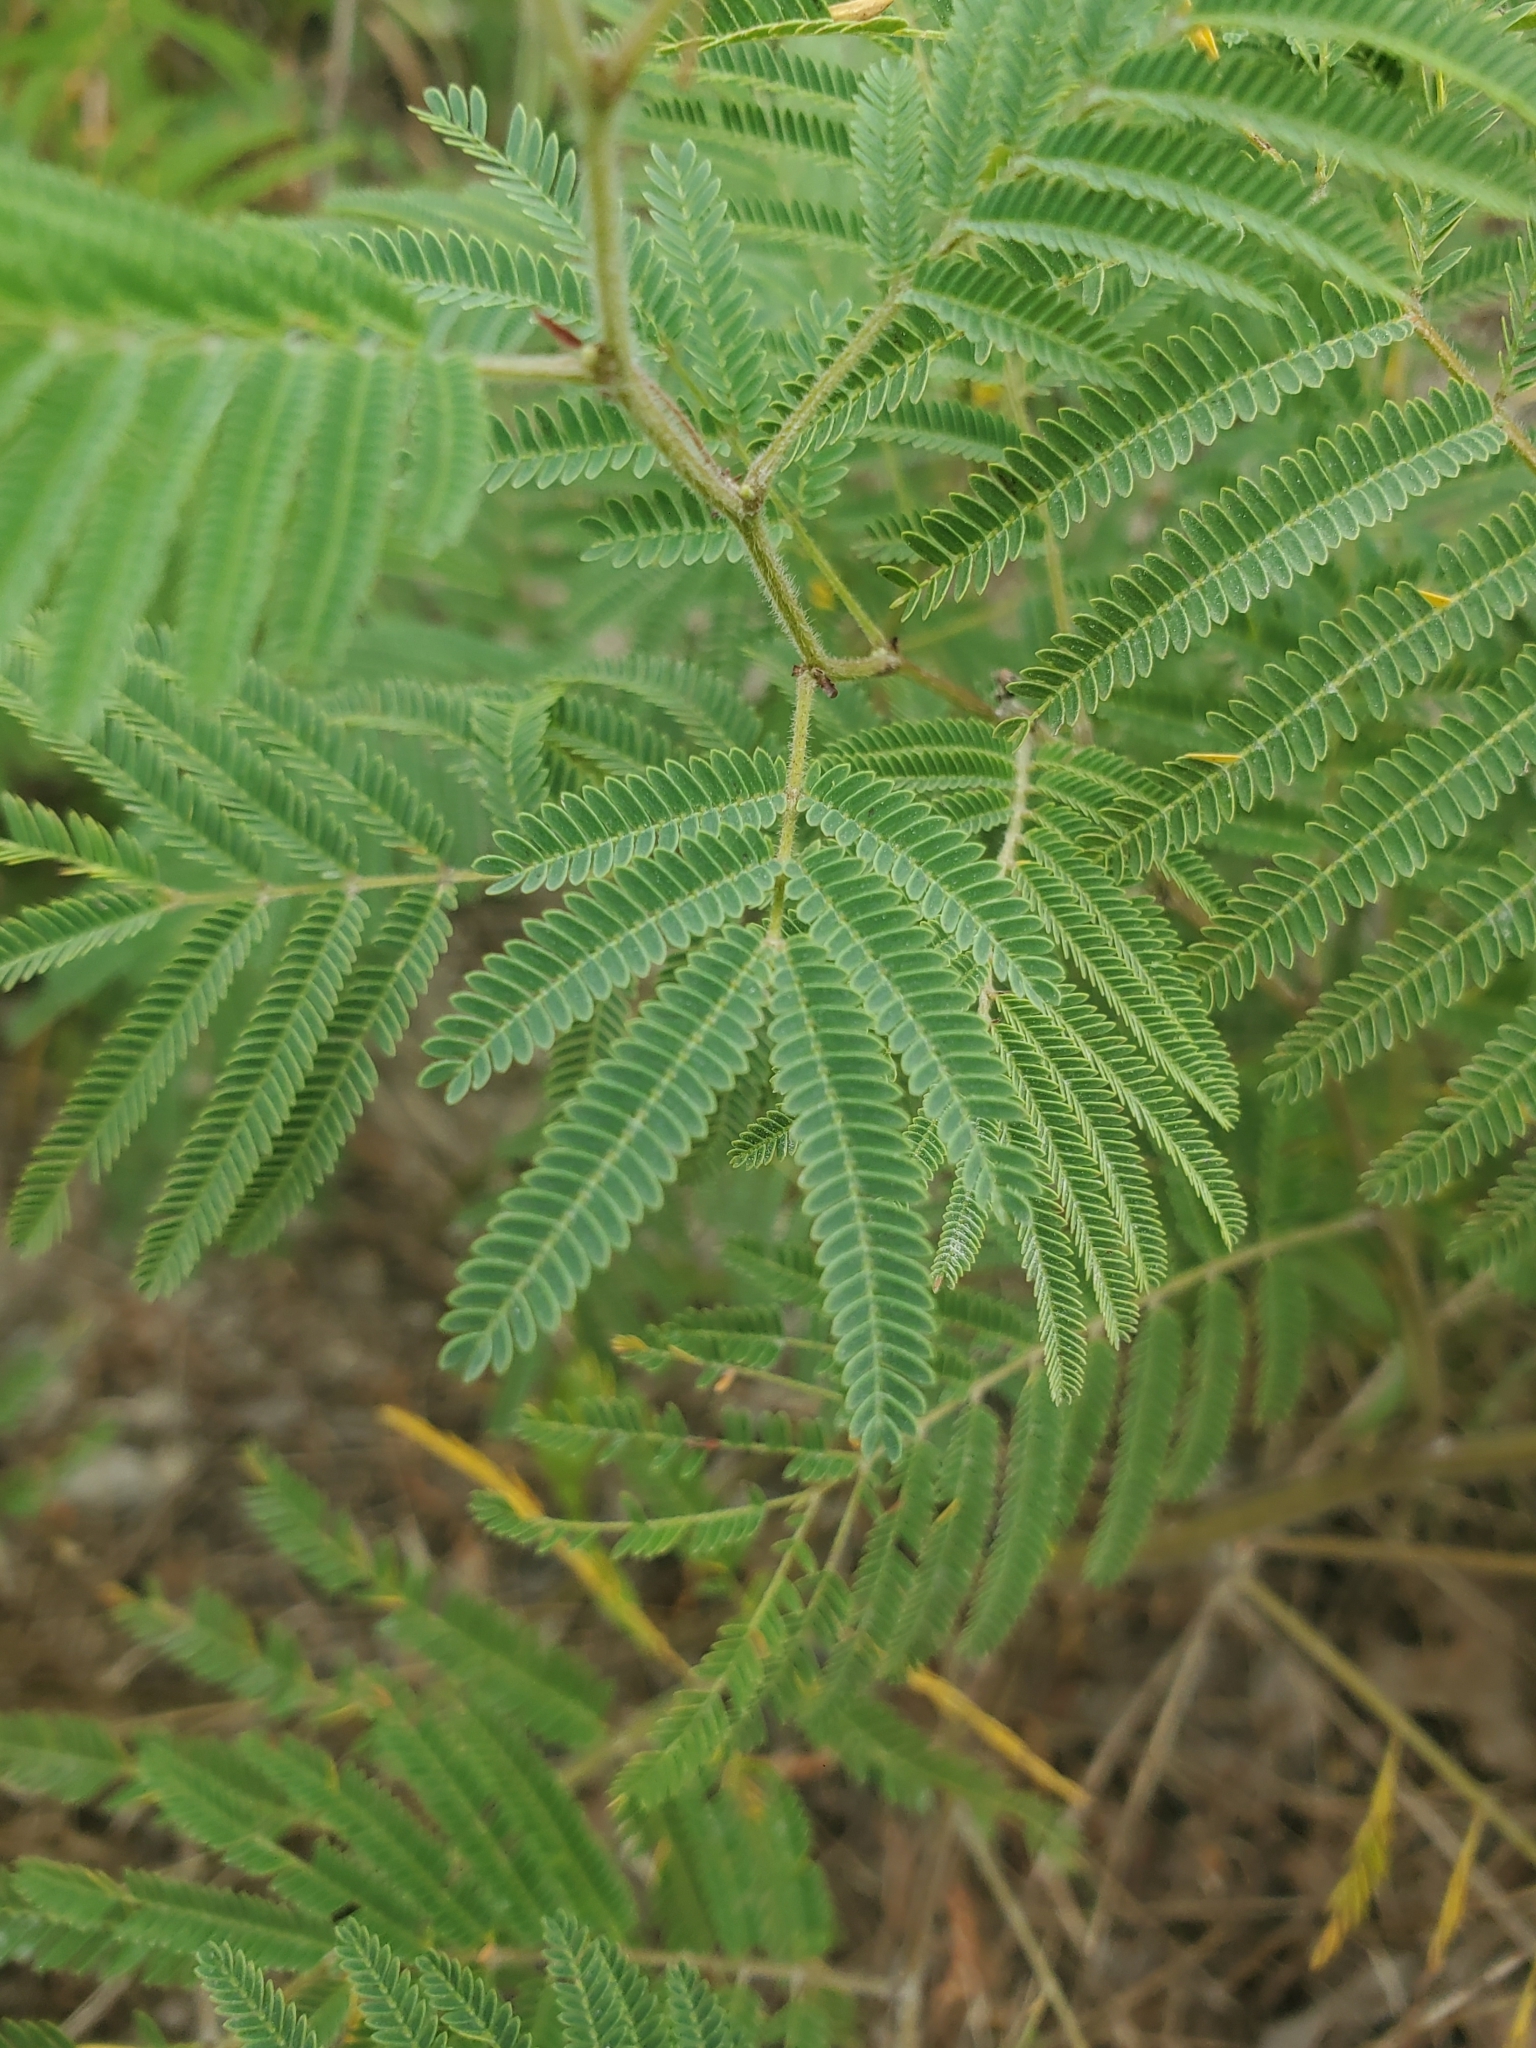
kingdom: Plantae
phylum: Tracheophyta
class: Magnoliopsida
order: Fabales
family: Fabaceae
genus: Acaciella
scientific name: Acaciella angustissima
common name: Prairie acacia
